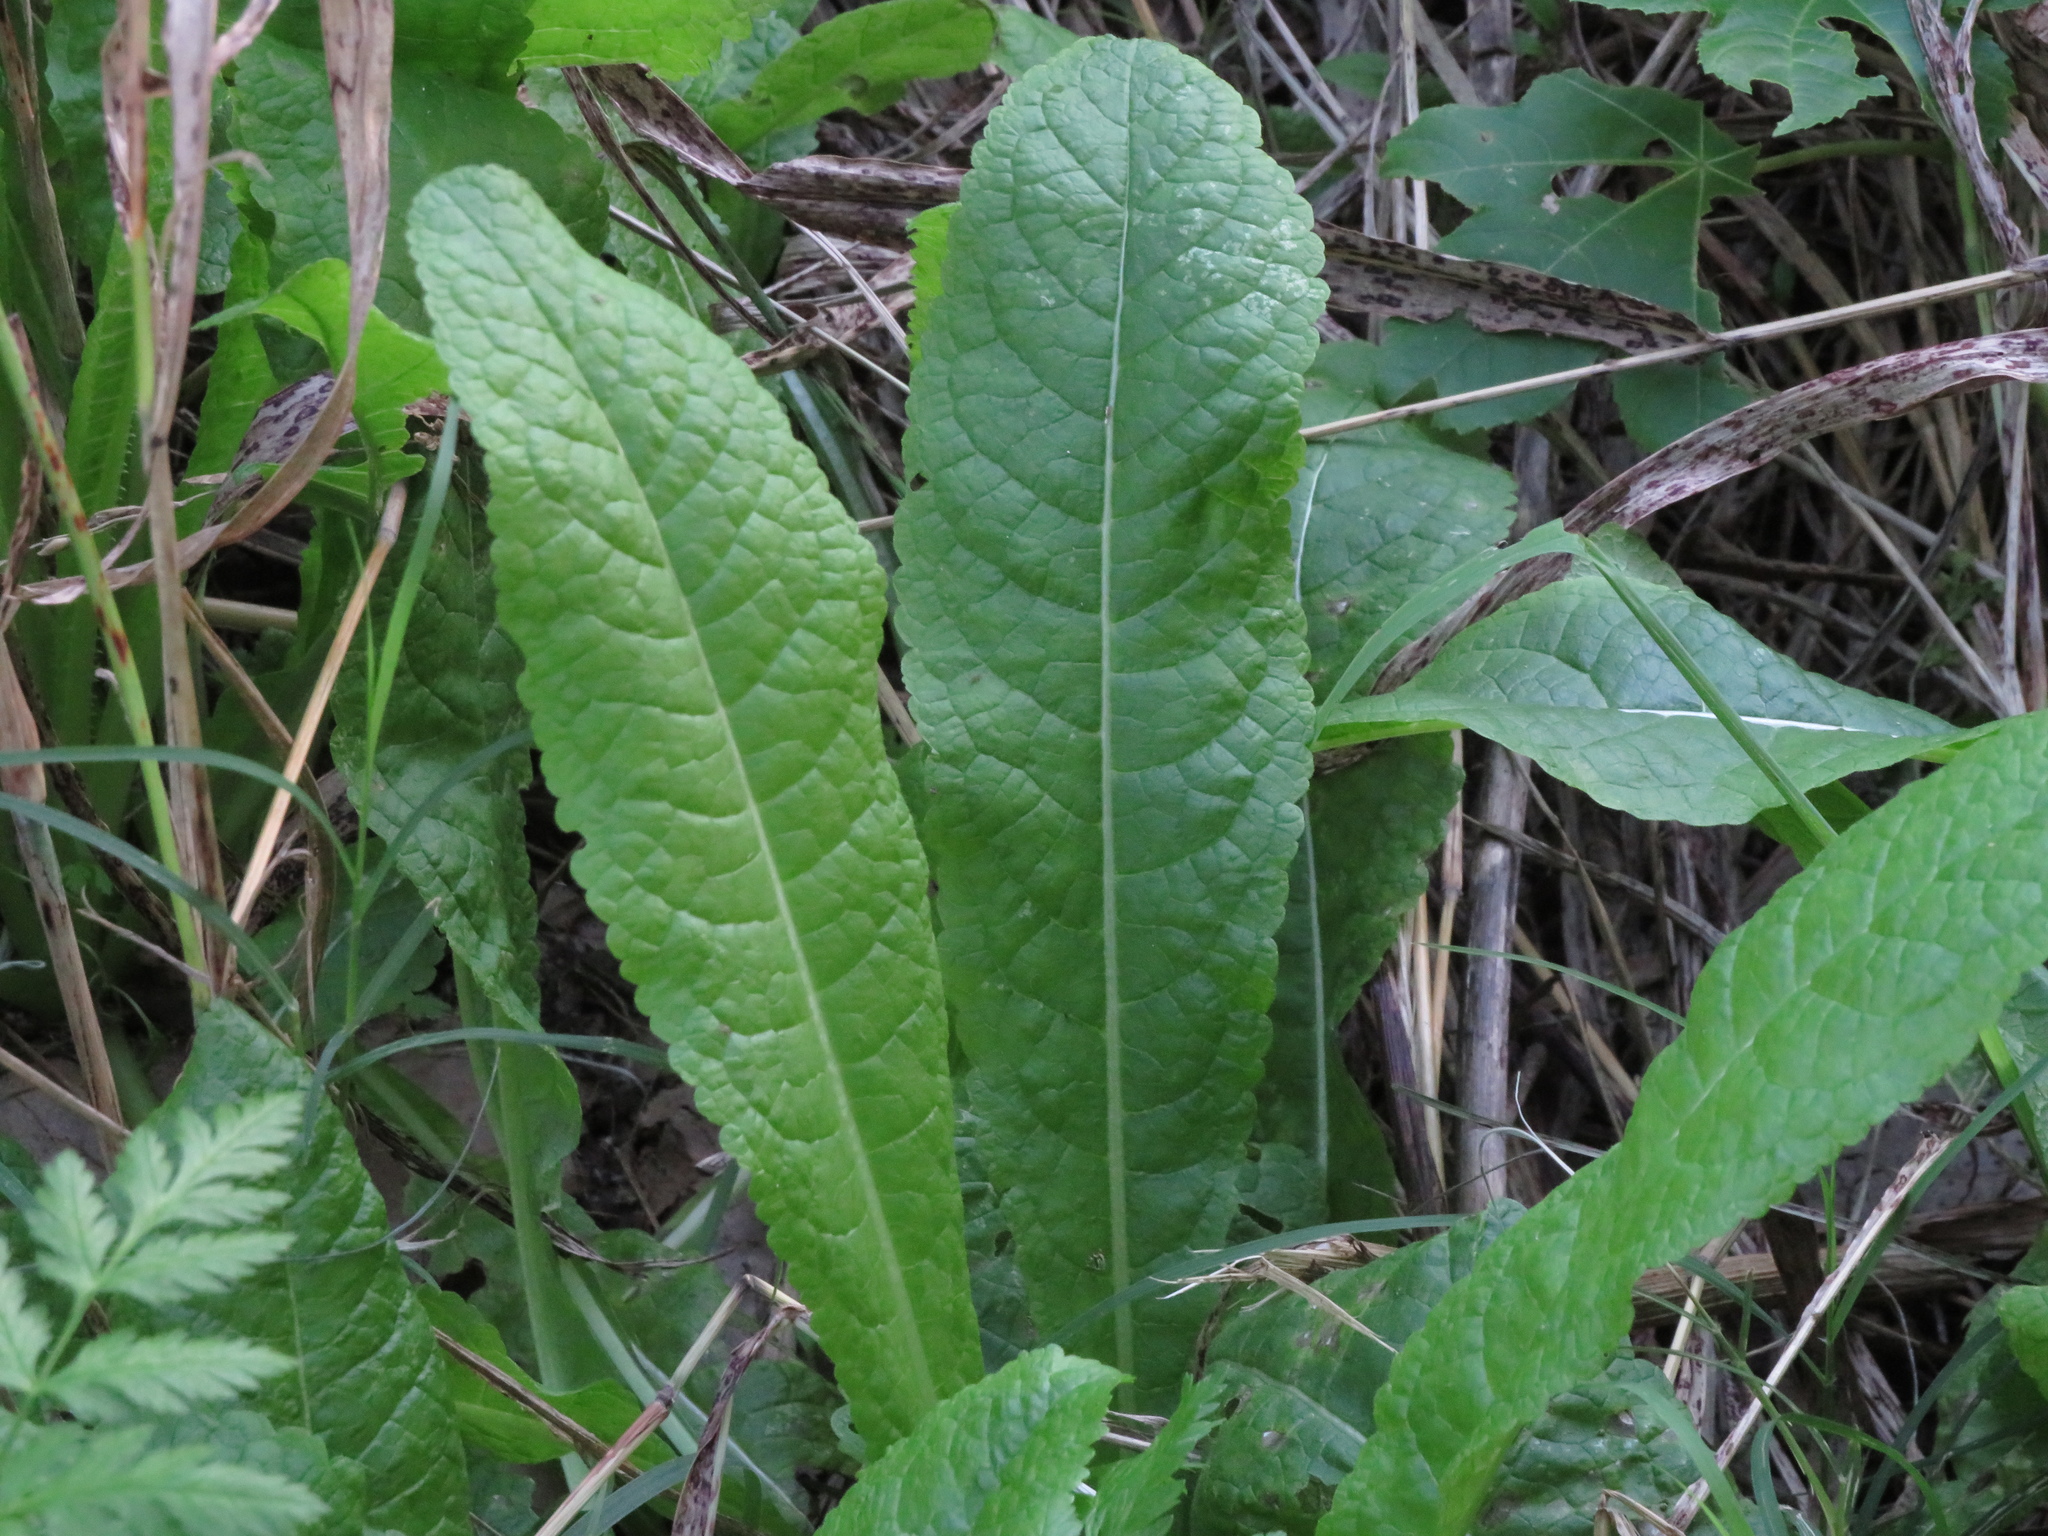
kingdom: Plantae
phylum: Tracheophyta
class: Magnoliopsida
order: Dipsacales
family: Caprifoliaceae
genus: Dipsacus
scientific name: Dipsacus fullonum
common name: Teasel
